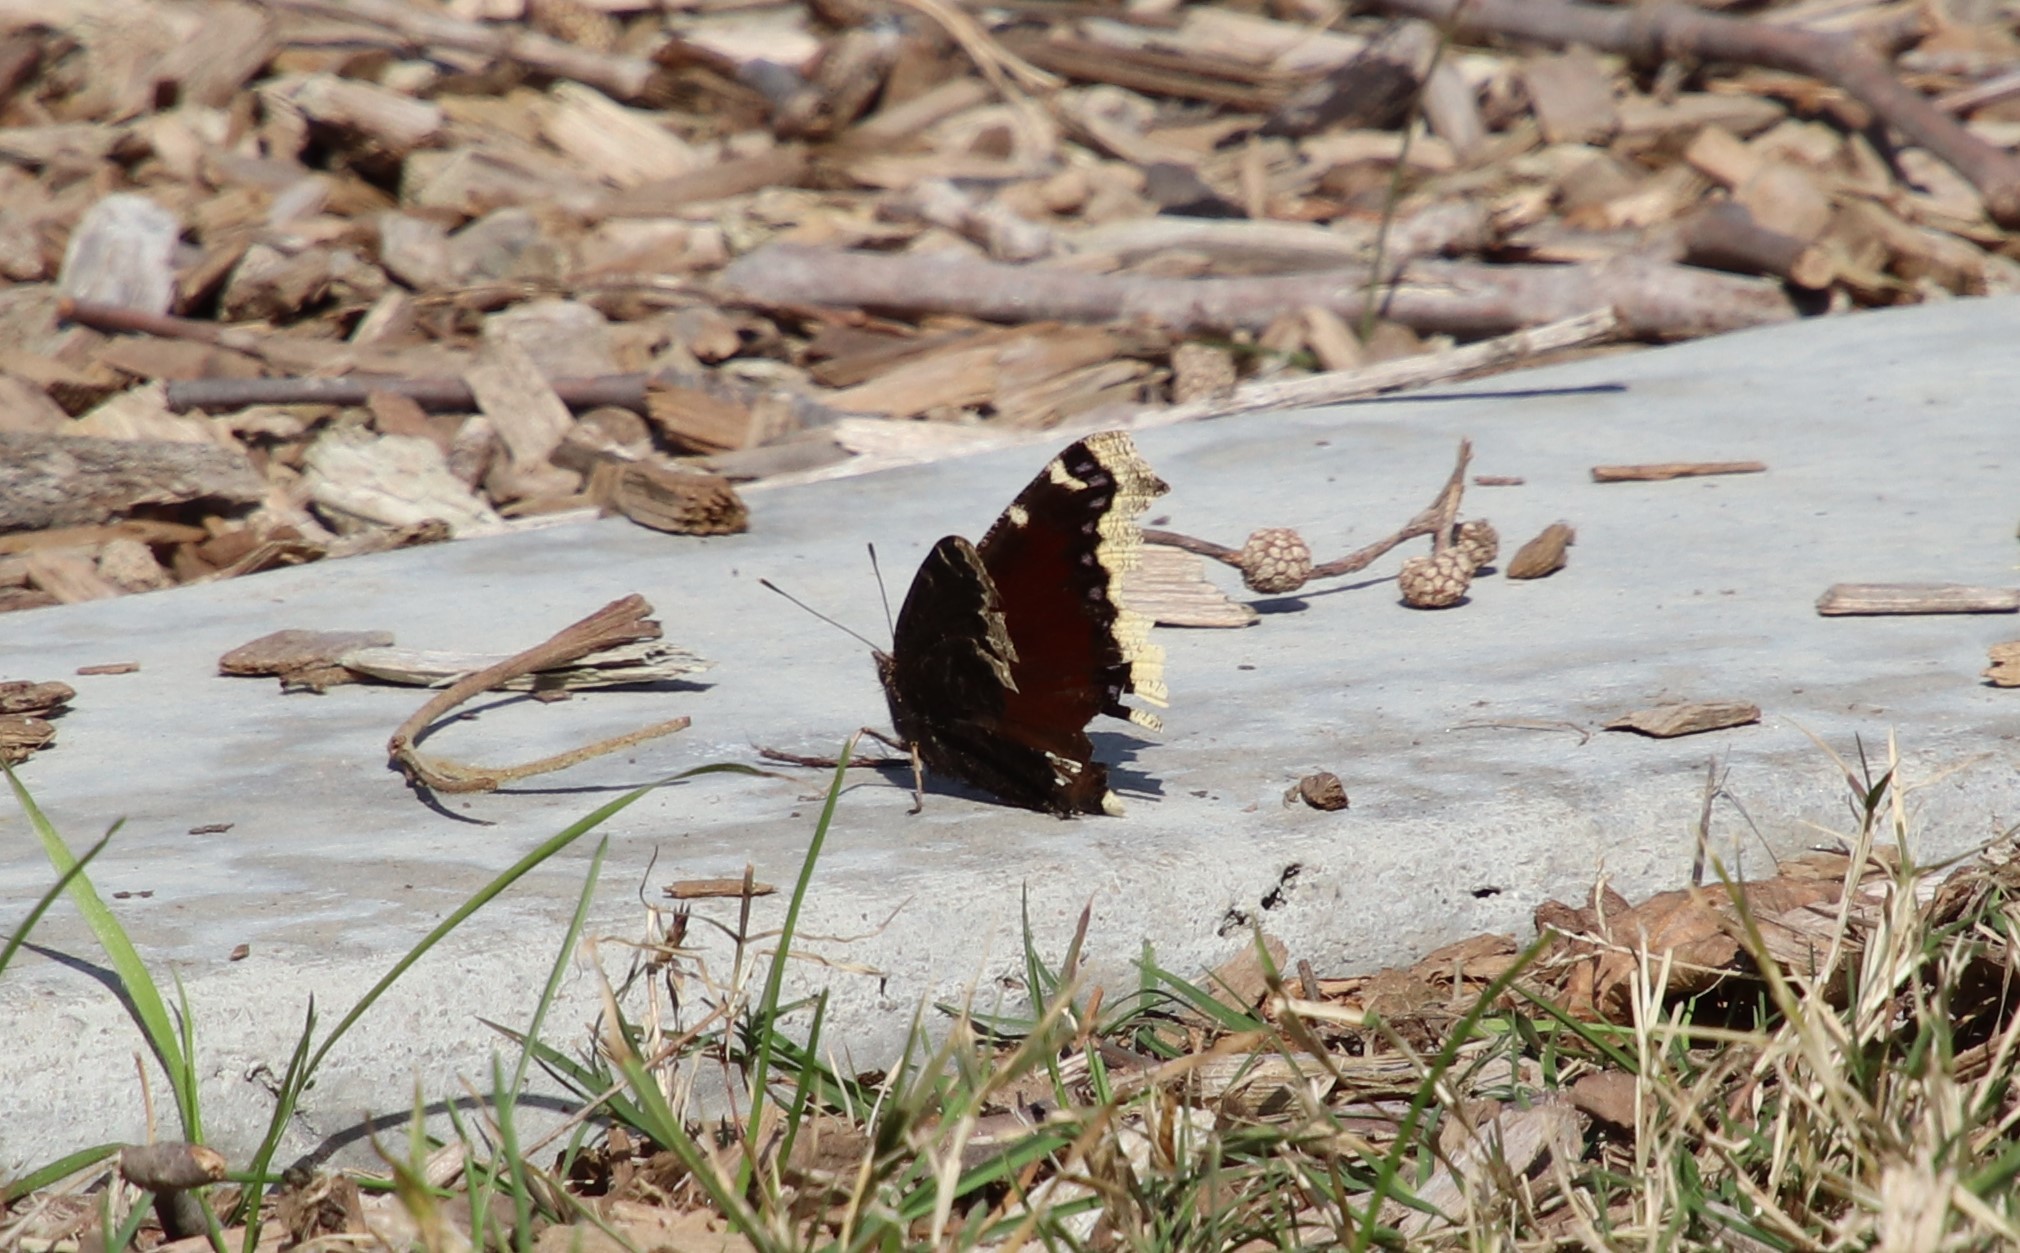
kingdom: Animalia
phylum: Arthropoda
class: Insecta
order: Lepidoptera
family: Nymphalidae
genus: Nymphalis
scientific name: Nymphalis antiopa
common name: Camberwell beauty
